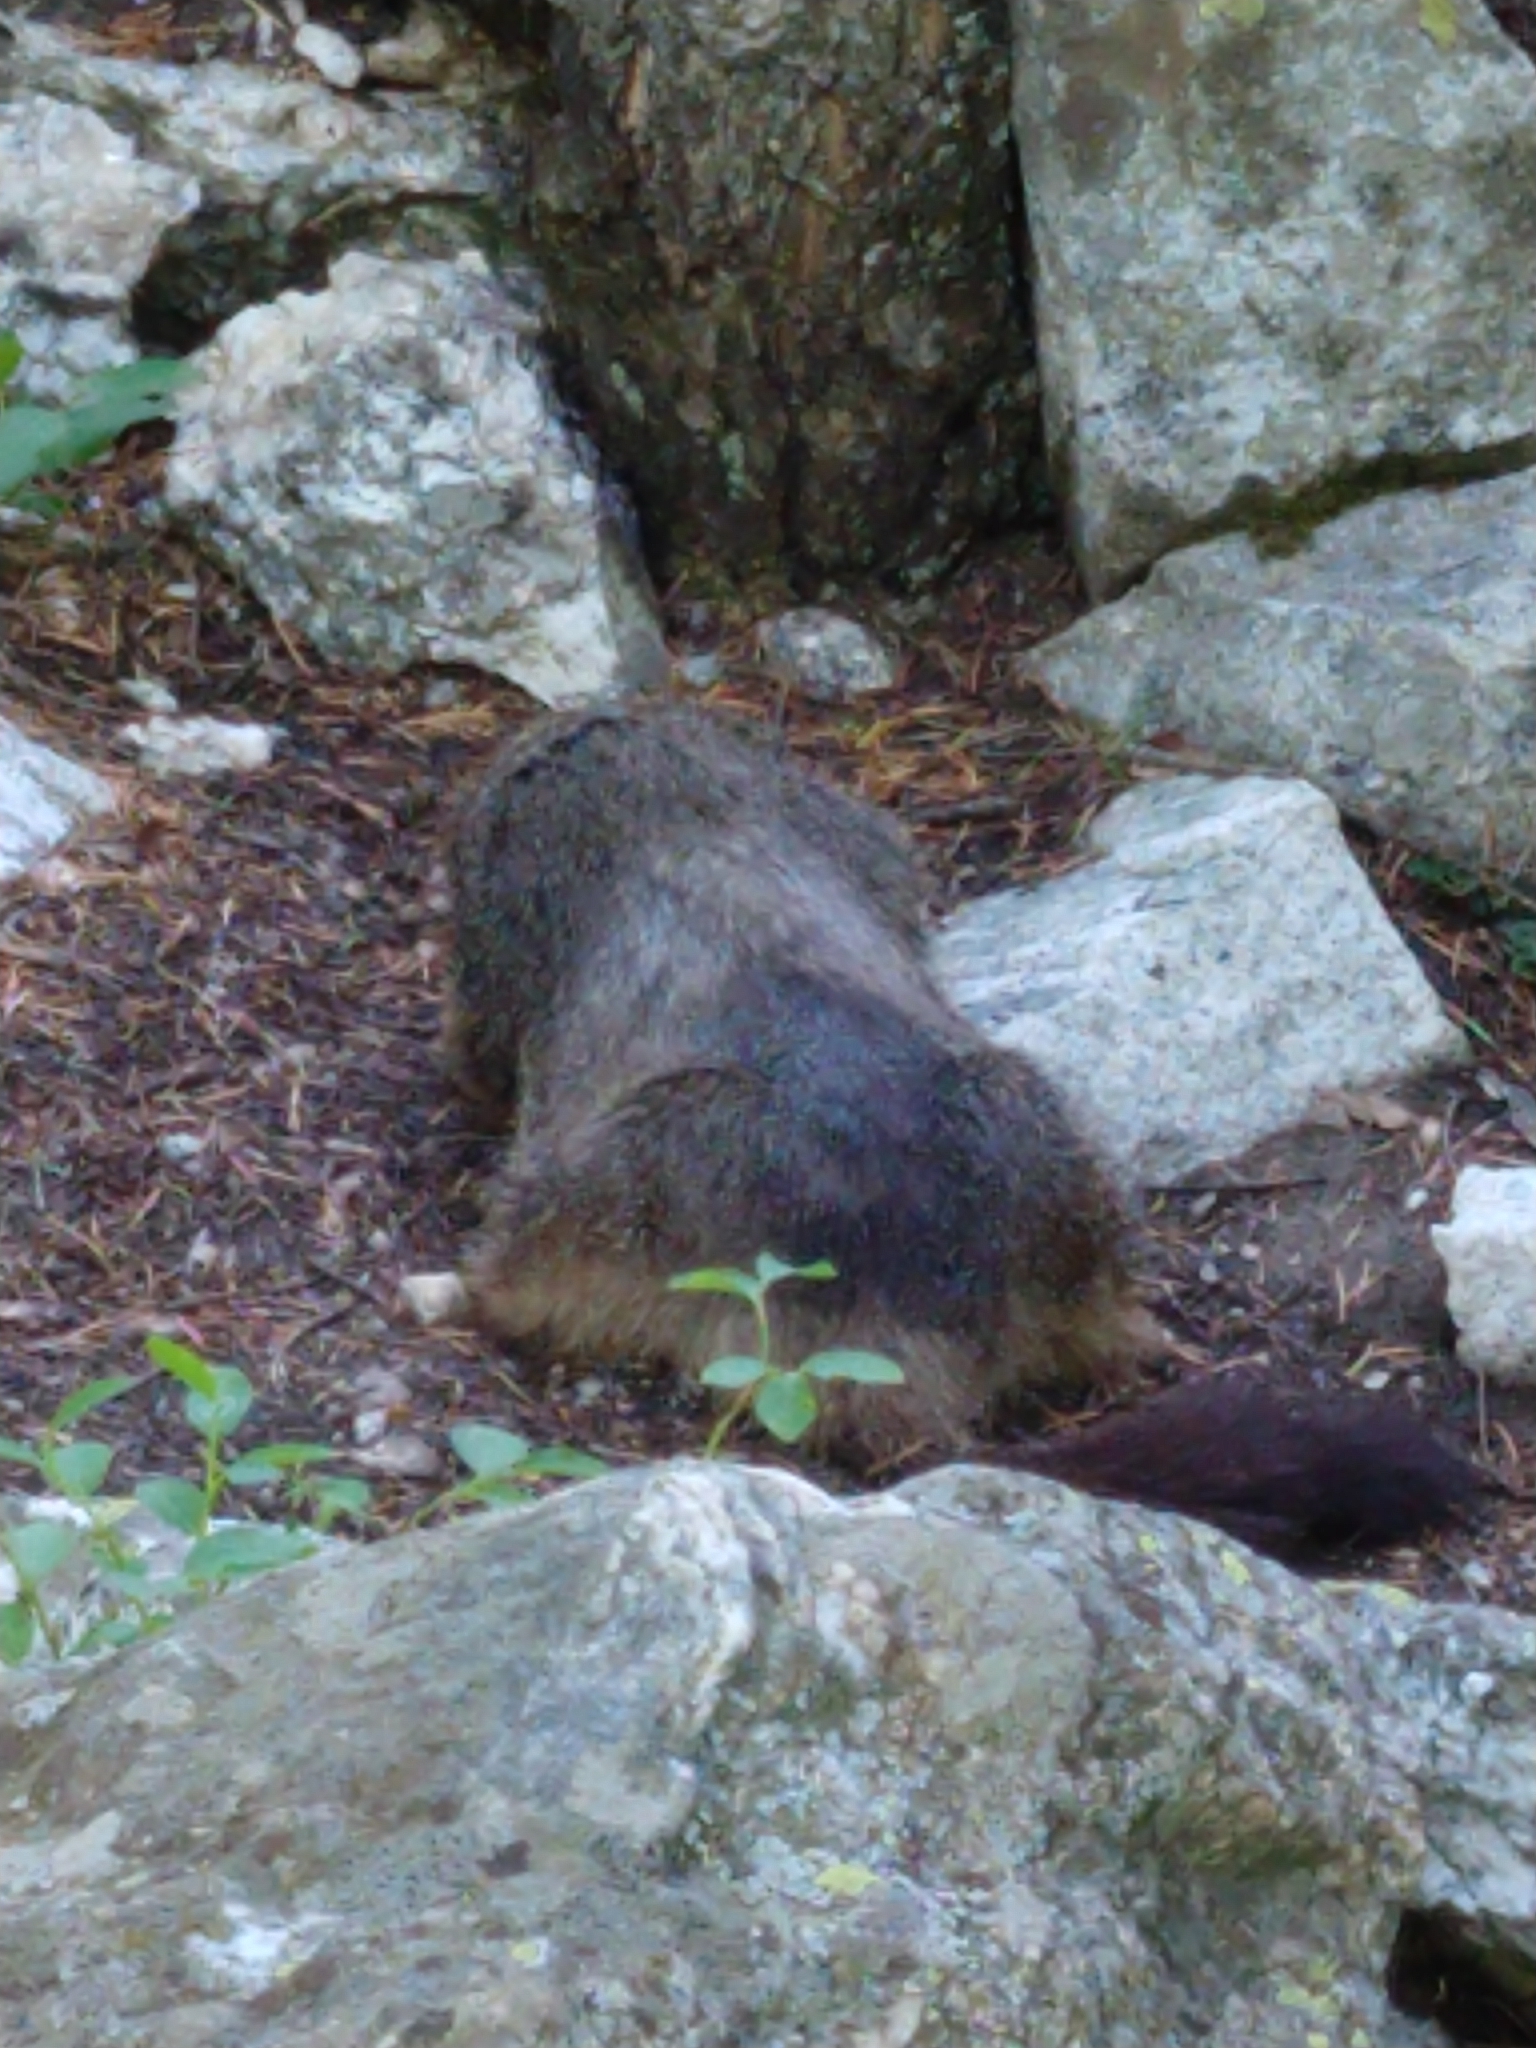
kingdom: Animalia
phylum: Chordata
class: Mammalia
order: Rodentia
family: Sciuridae
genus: Marmota
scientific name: Marmota flaviventris
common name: Yellow-bellied marmot
